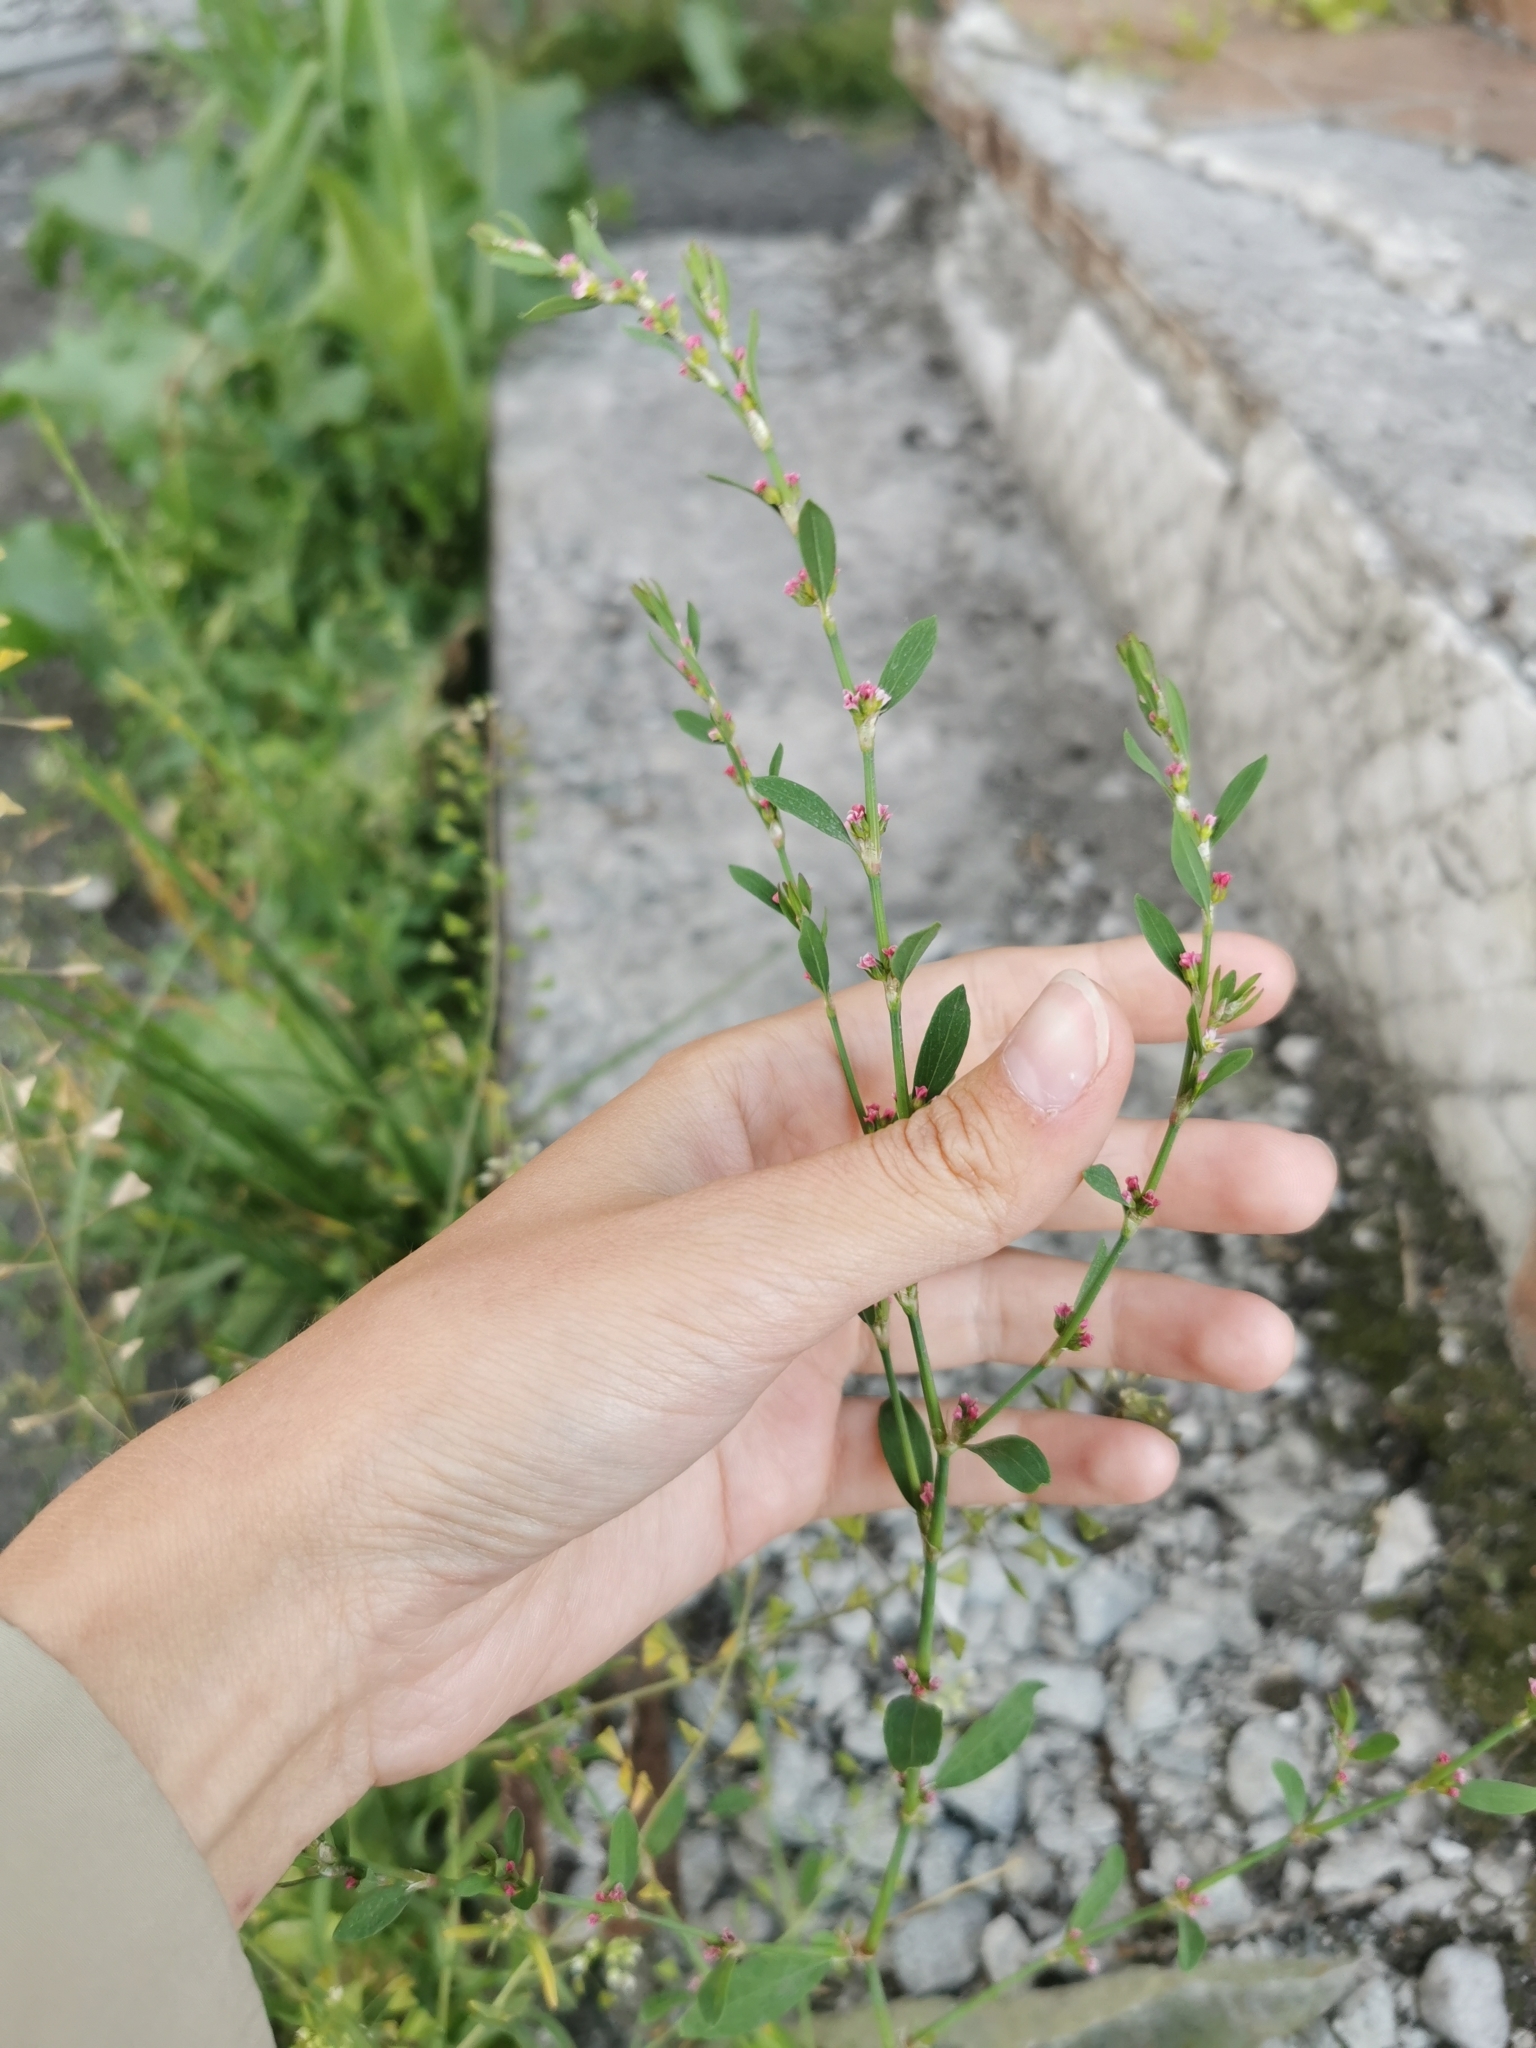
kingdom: Plantae
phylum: Tracheophyta
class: Magnoliopsida
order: Caryophyllales
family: Polygonaceae
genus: Polygonum
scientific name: Polygonum
